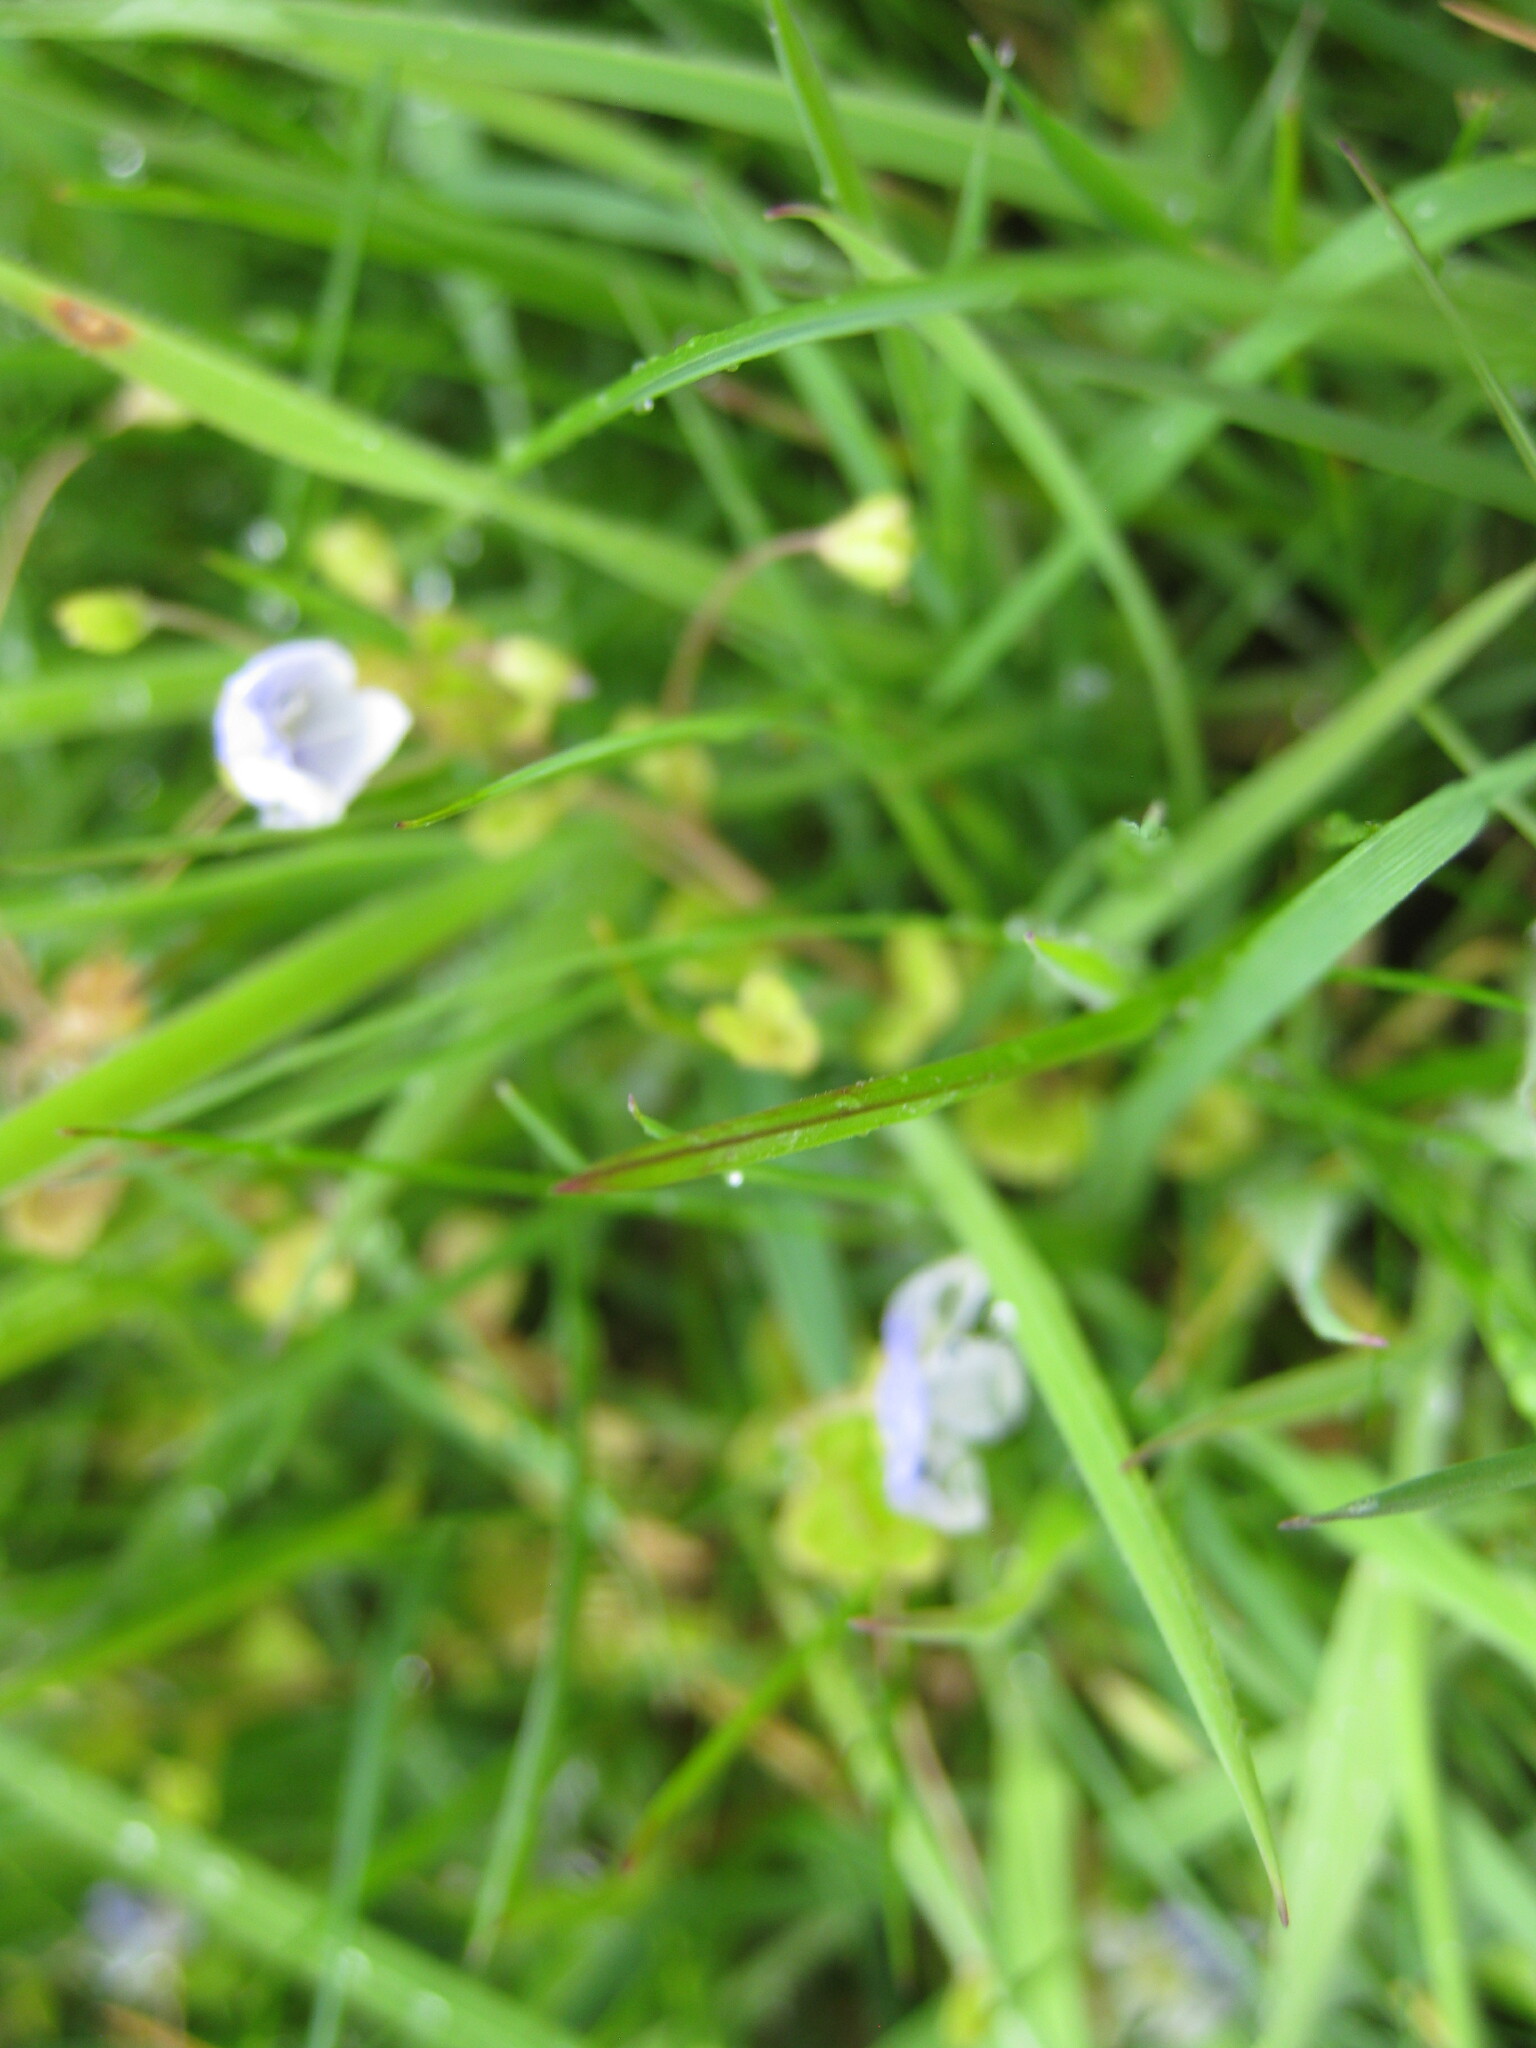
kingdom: Plantae
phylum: Tracheophyta
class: Magnoliopsida
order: Lamiales
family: Plantaginaceae
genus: Veronica
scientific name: Veronica filiformis
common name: Slender speedwell
